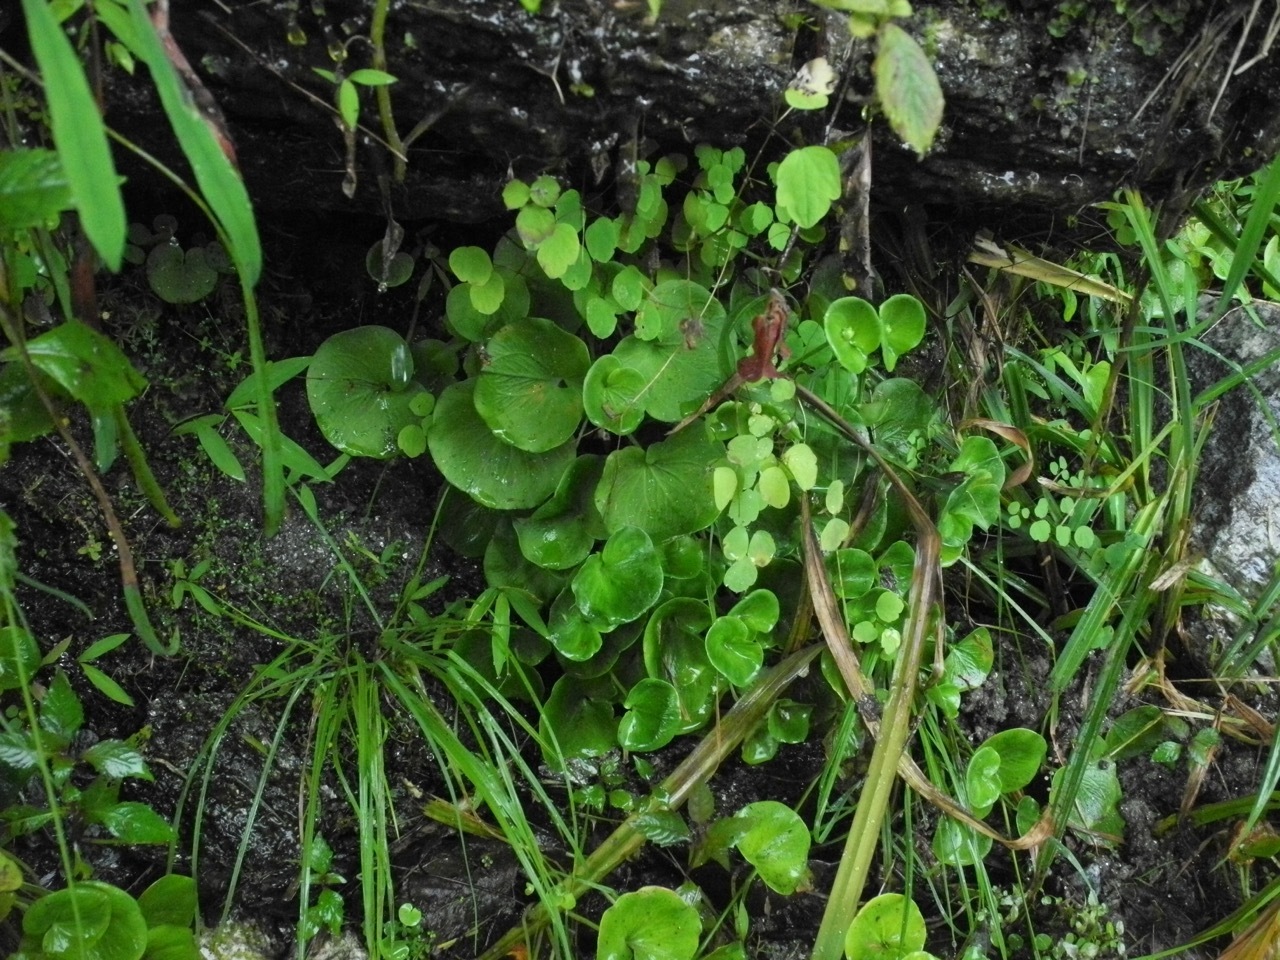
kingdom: Plantae
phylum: Tracheophyta
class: Magnoliopsida
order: Celastrales
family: Parnassiaceae
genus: Parnassia
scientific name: Parnassia asarifolia
